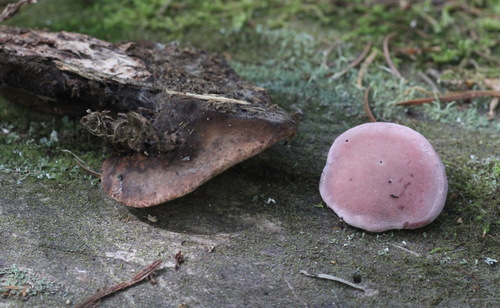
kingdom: Fungi
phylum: Basidiomycota
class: Agaricomycetes
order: Polyporales
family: Fomitopsidaceae
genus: Rhodofomes
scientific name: Rhodofomes roseus
